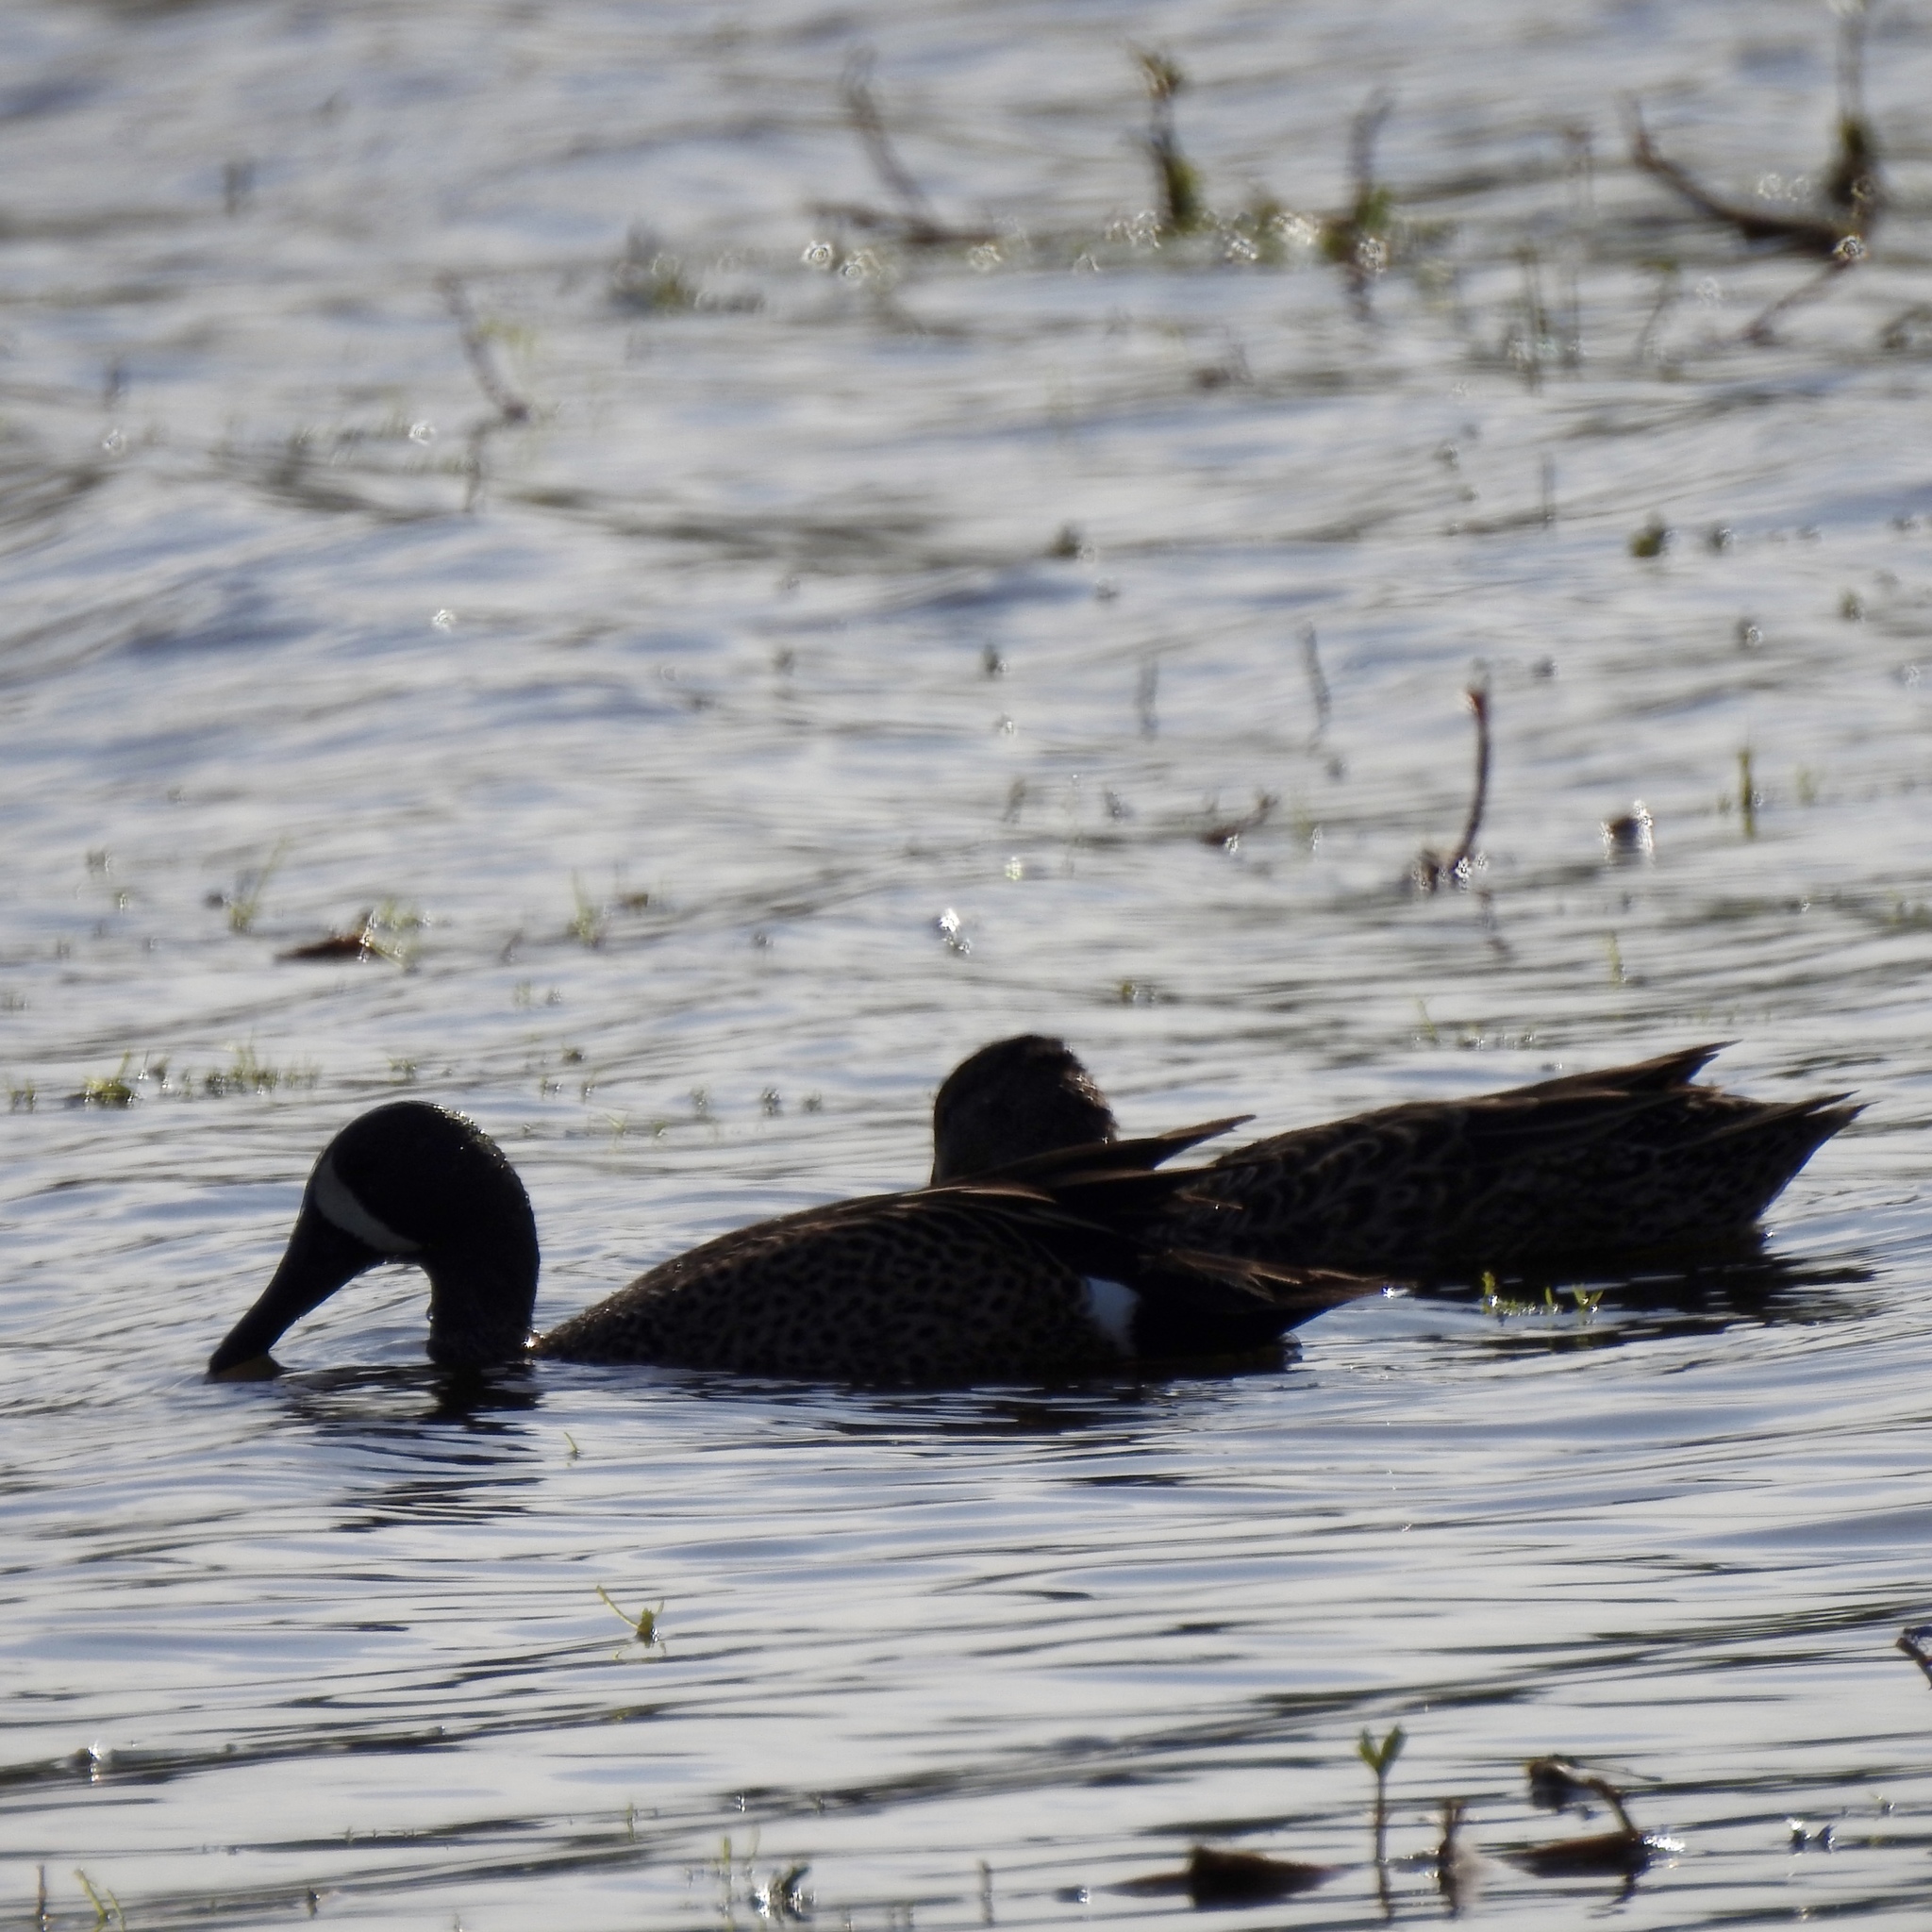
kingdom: Animalia
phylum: Chordata
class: Aves
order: Anseriformes
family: Anatidae
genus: Spatula
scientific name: Spatula discors
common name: Blue-winged teal
